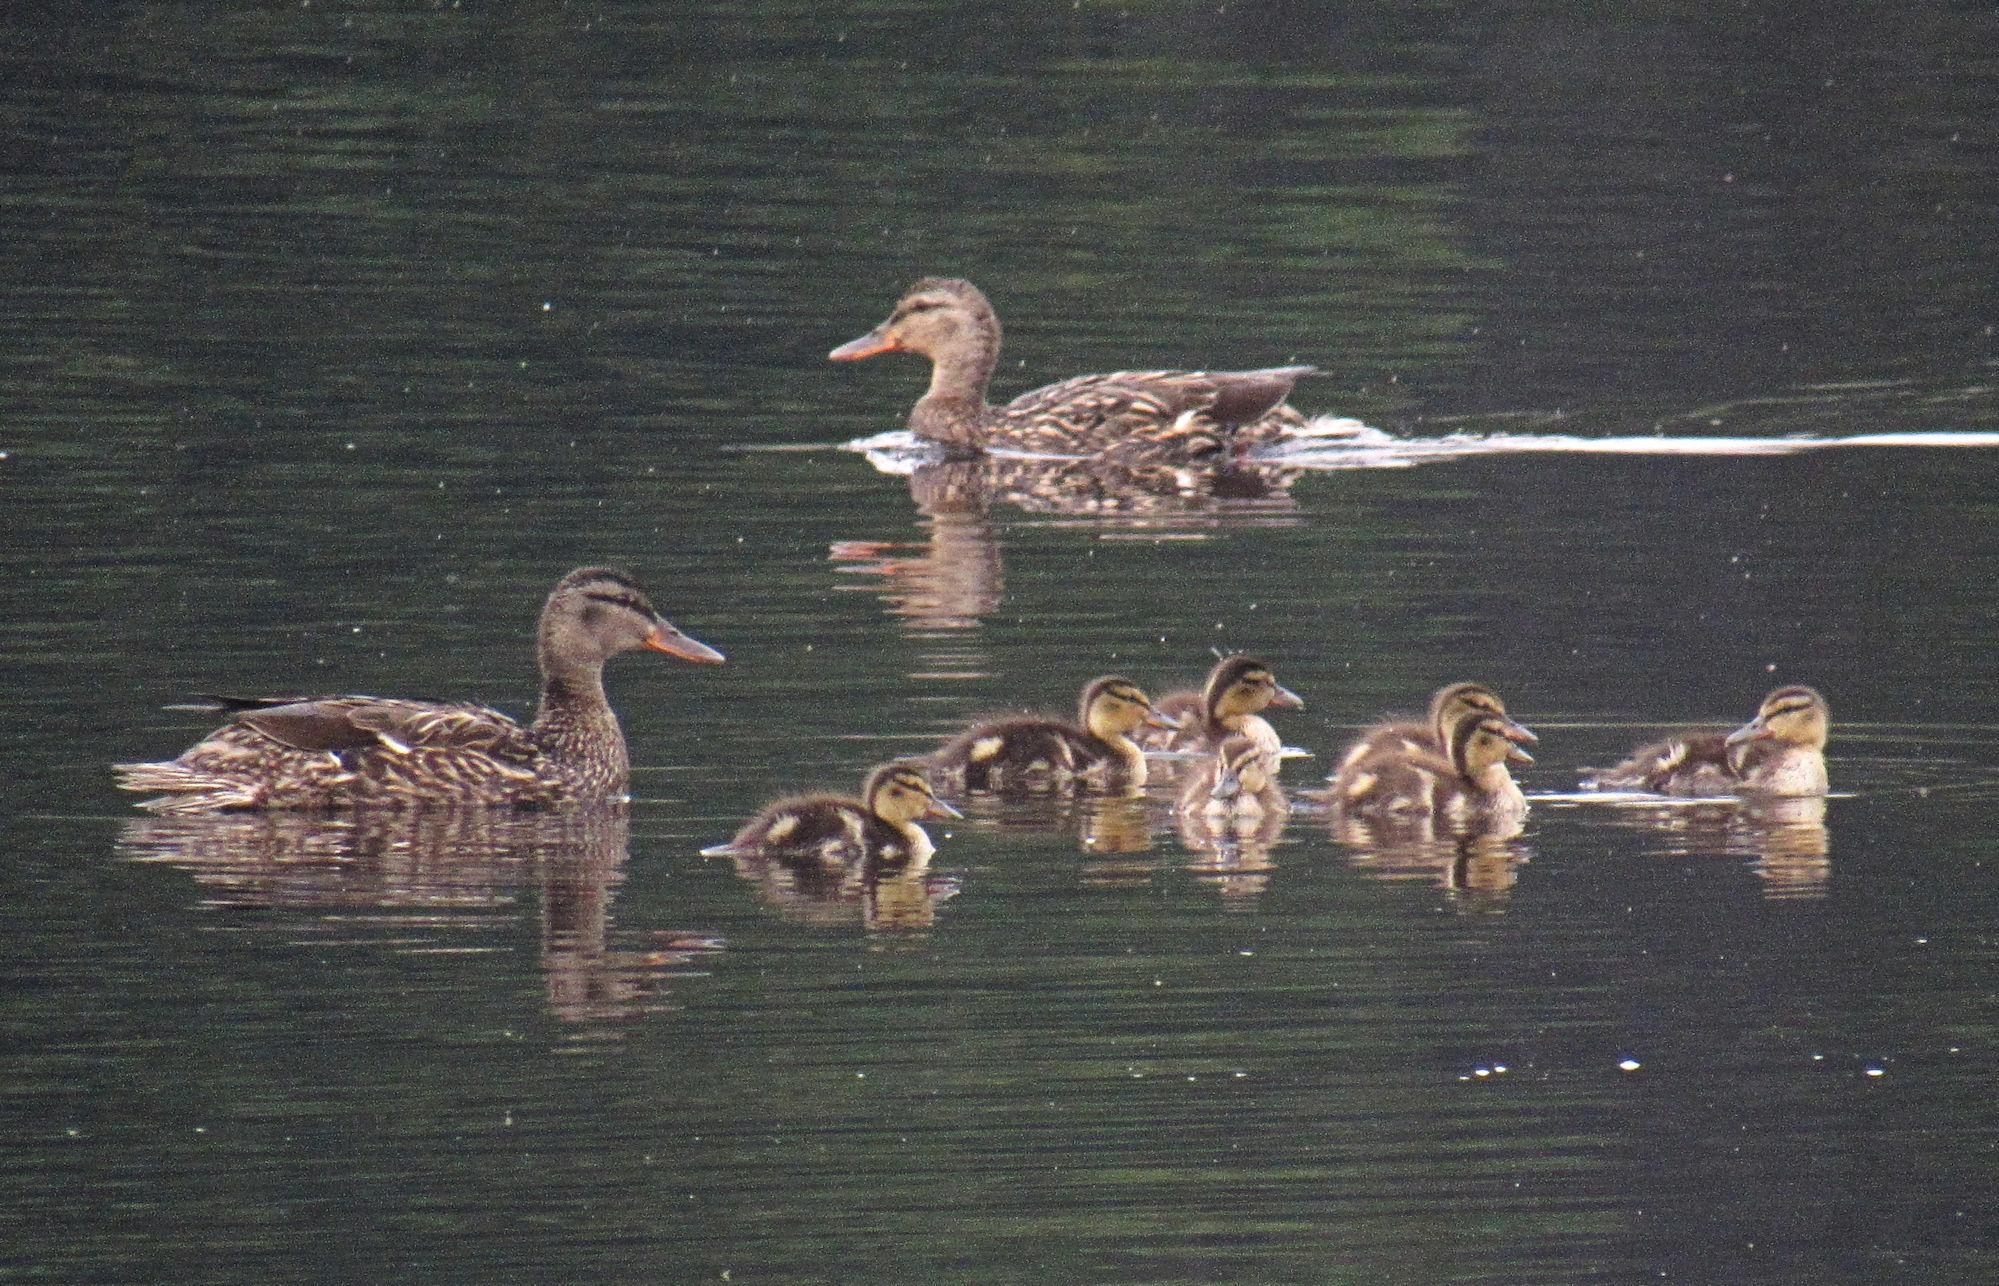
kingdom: Animalia
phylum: Chordata
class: Aves
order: Anseriformes
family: Anatidae
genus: Anas
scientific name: Anas platyrhynchos
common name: Mallard
